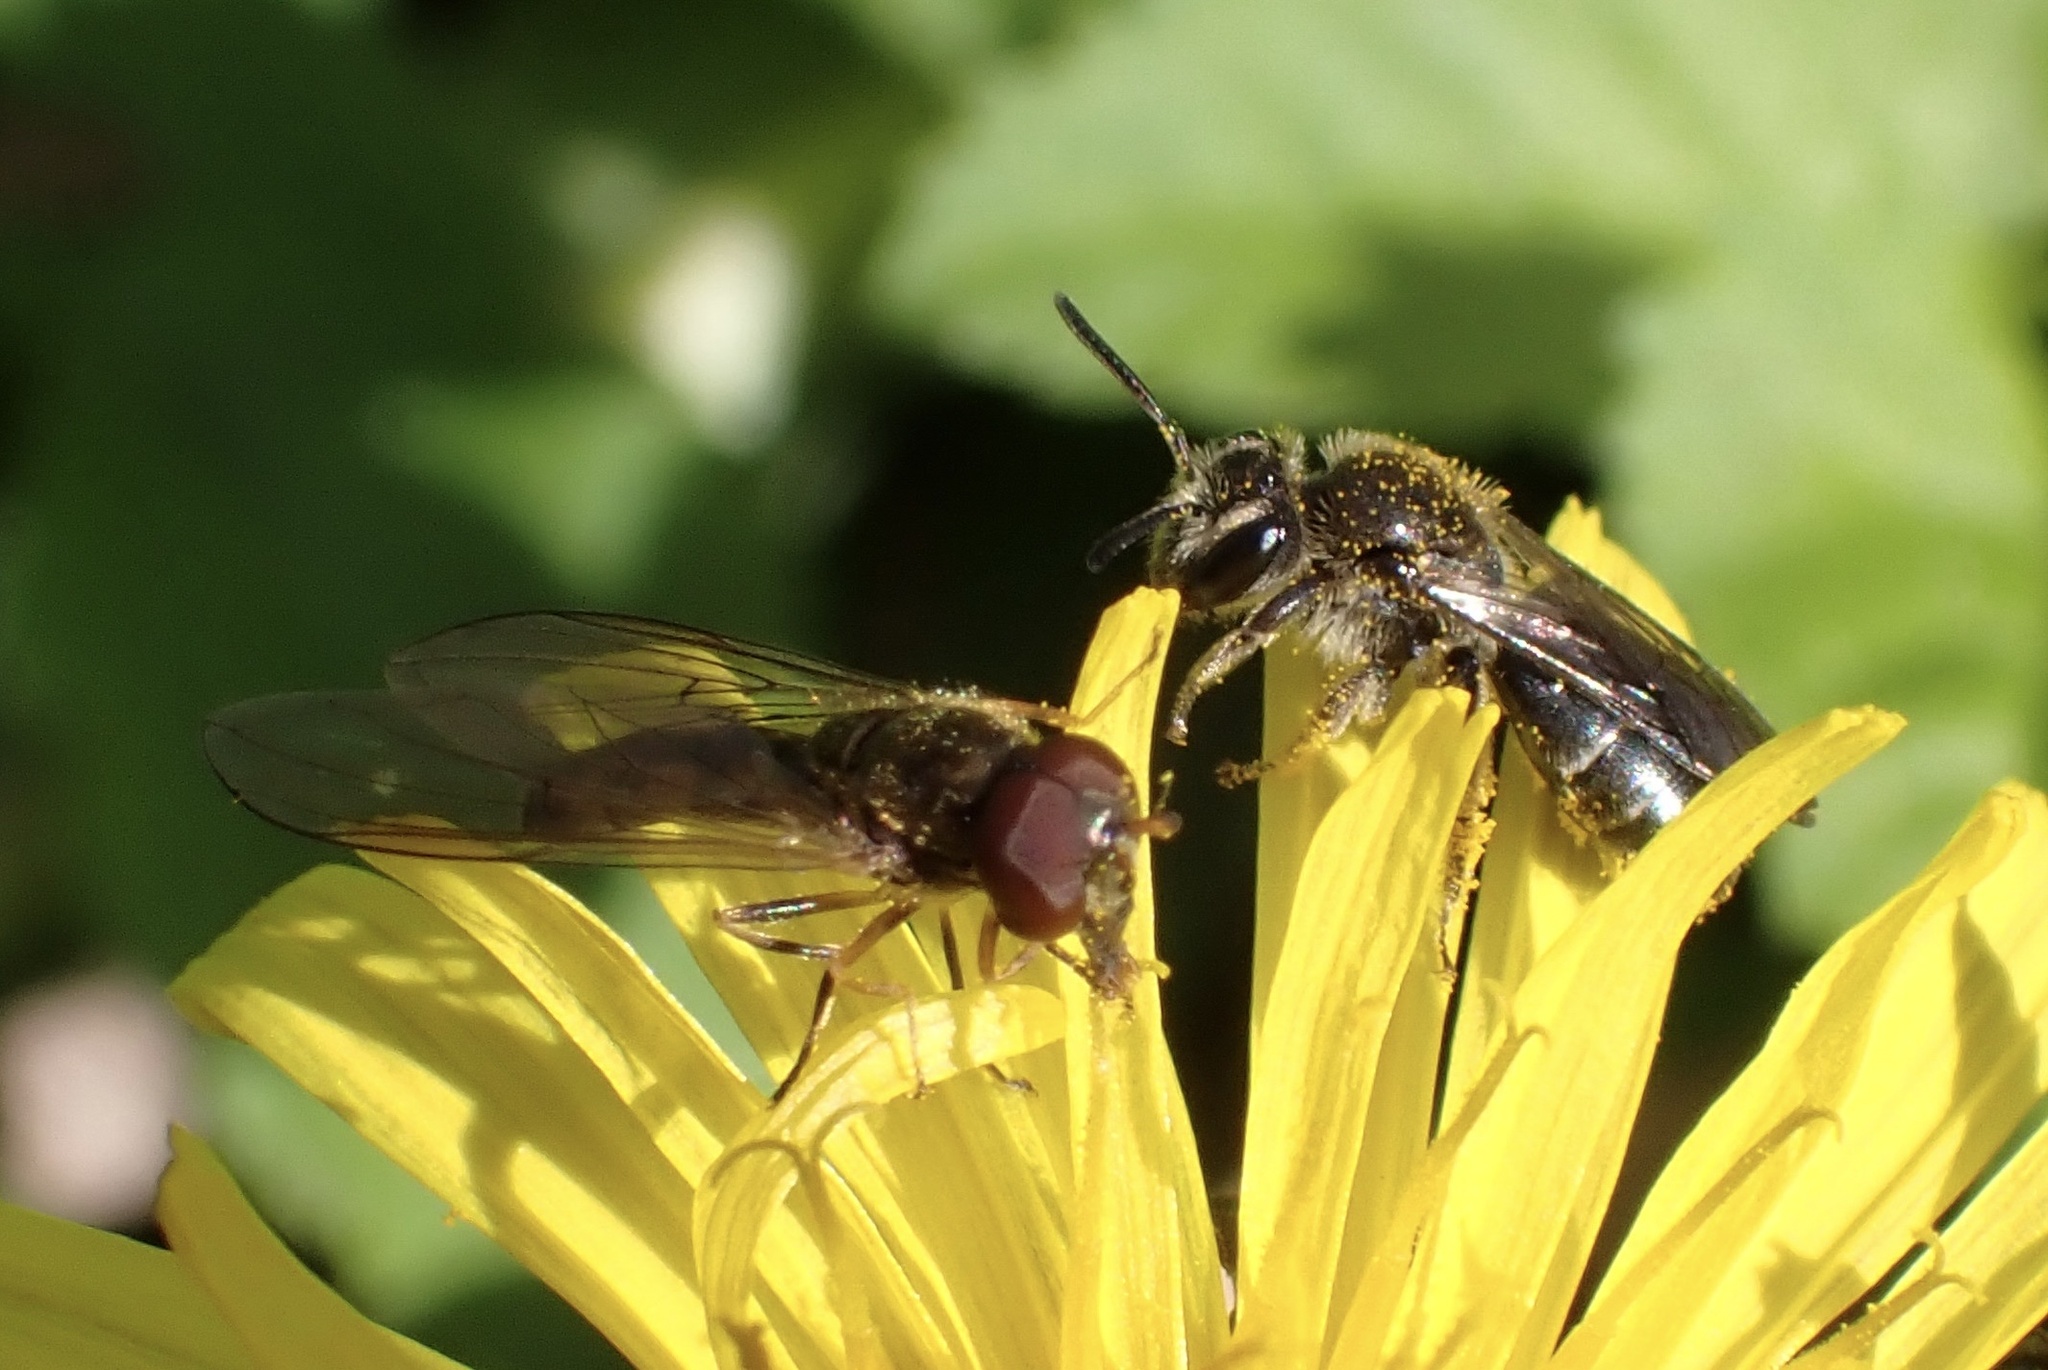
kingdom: Animalia
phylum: Arthropoda
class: Insecta
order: Diptera
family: Syrphidae
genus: Melanostoma
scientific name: Melanostoma scalare
